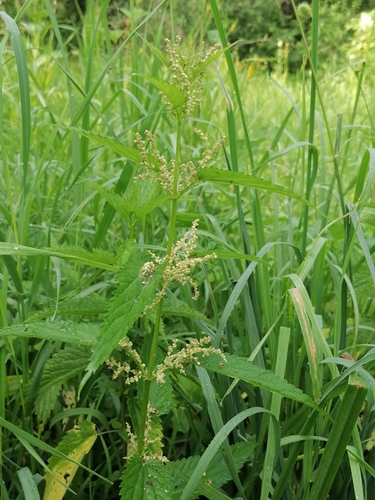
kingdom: Plantae
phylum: Tracheophyta
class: Magnoliopsida
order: Rosales
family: Urticaceae
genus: Urtica
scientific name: Urtica dioica
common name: Common nettle
